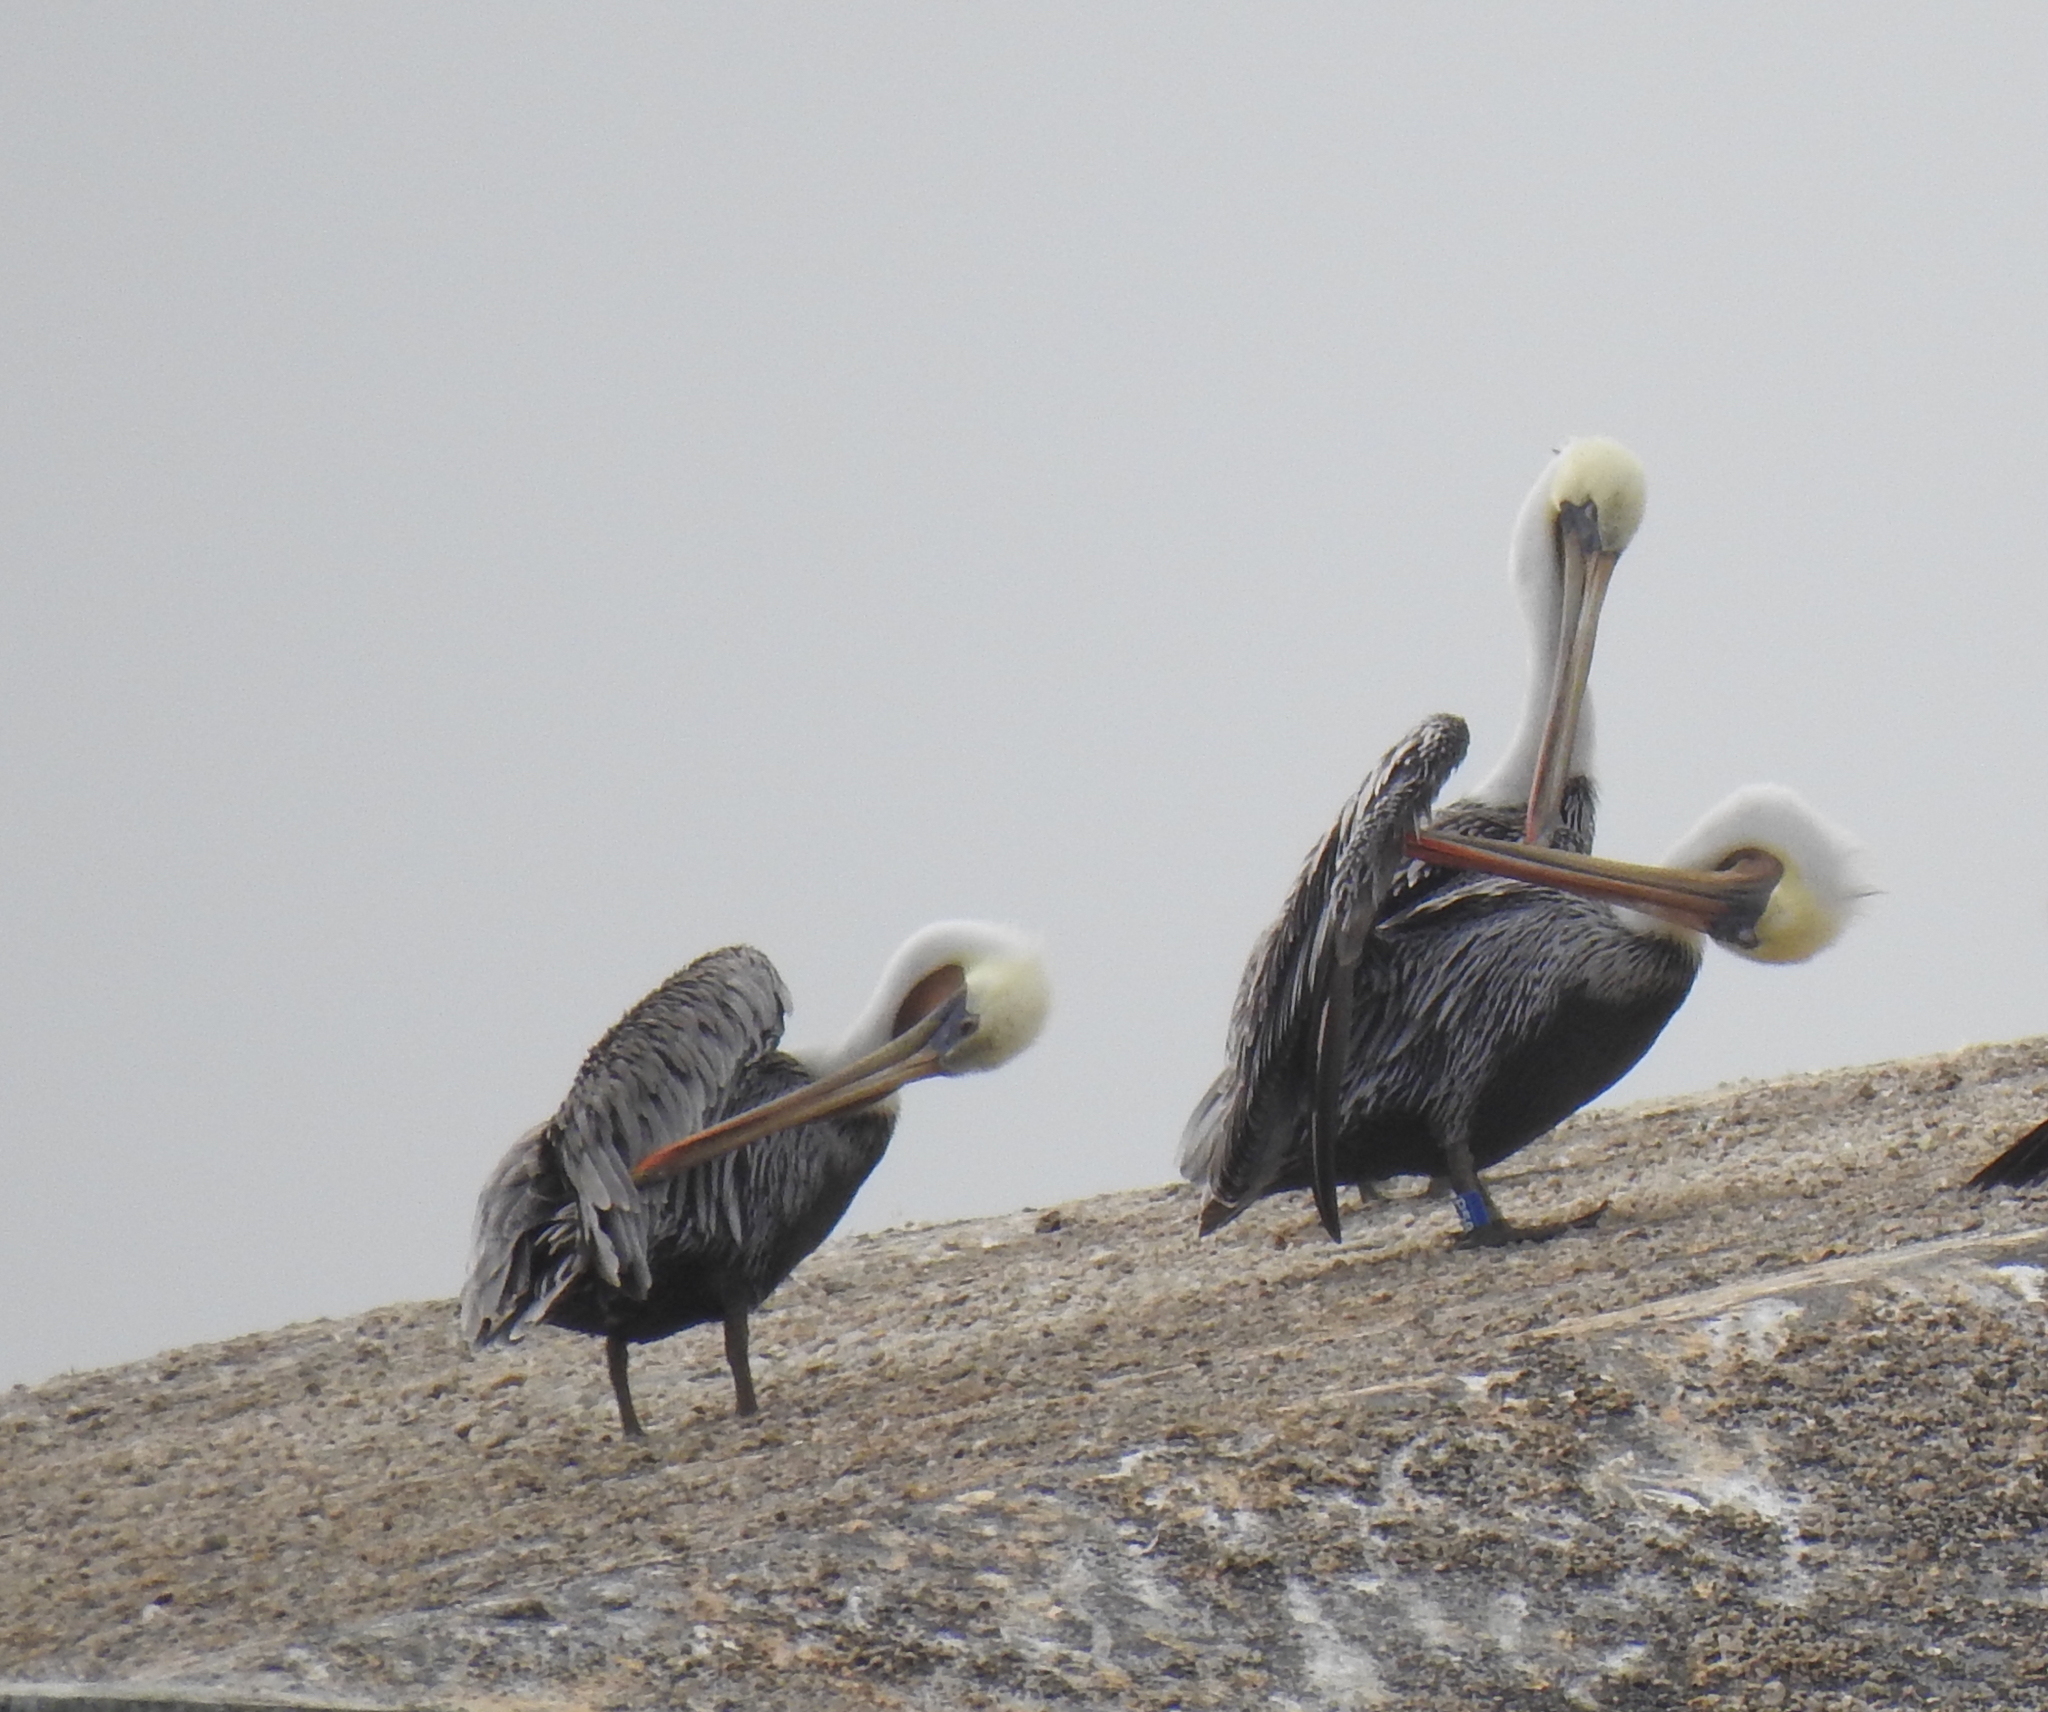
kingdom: Animalia
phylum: Chordata
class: Aves
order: Pelecaniformes
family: Pelecanidae
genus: Pelecanus
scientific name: Pelecanus occidentalis
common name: Brown pelican
